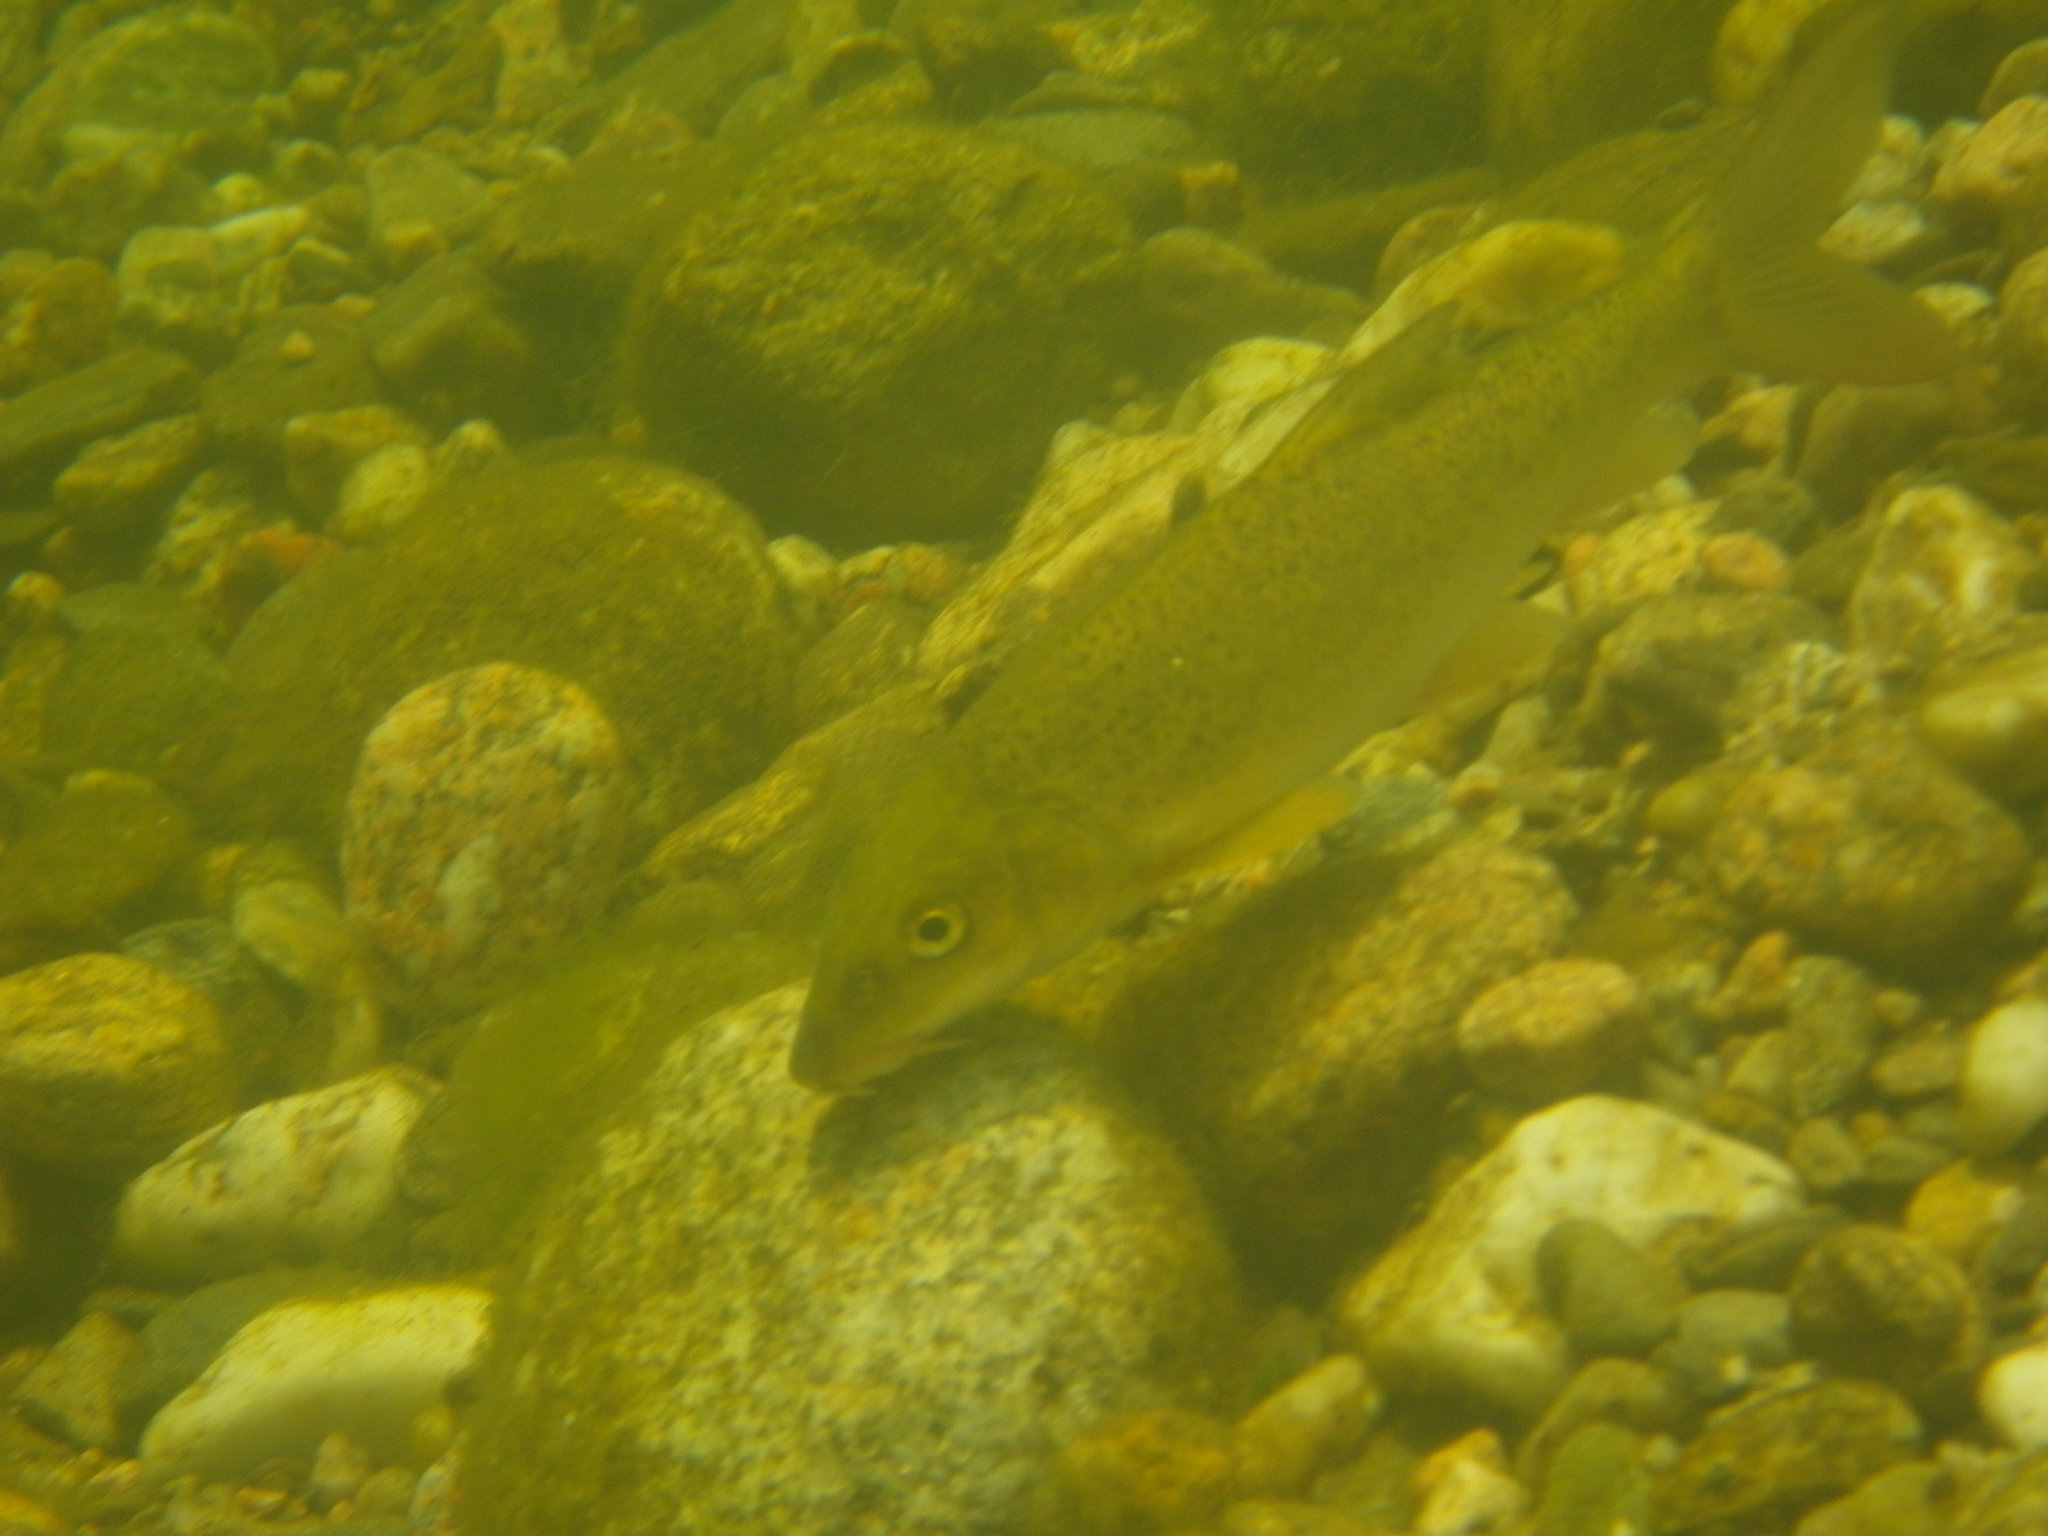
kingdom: Animalia
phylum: Chordata
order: Cypriniformes
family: Cyprinidae
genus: Barbus
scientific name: Barbus barbus
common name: Barbel
